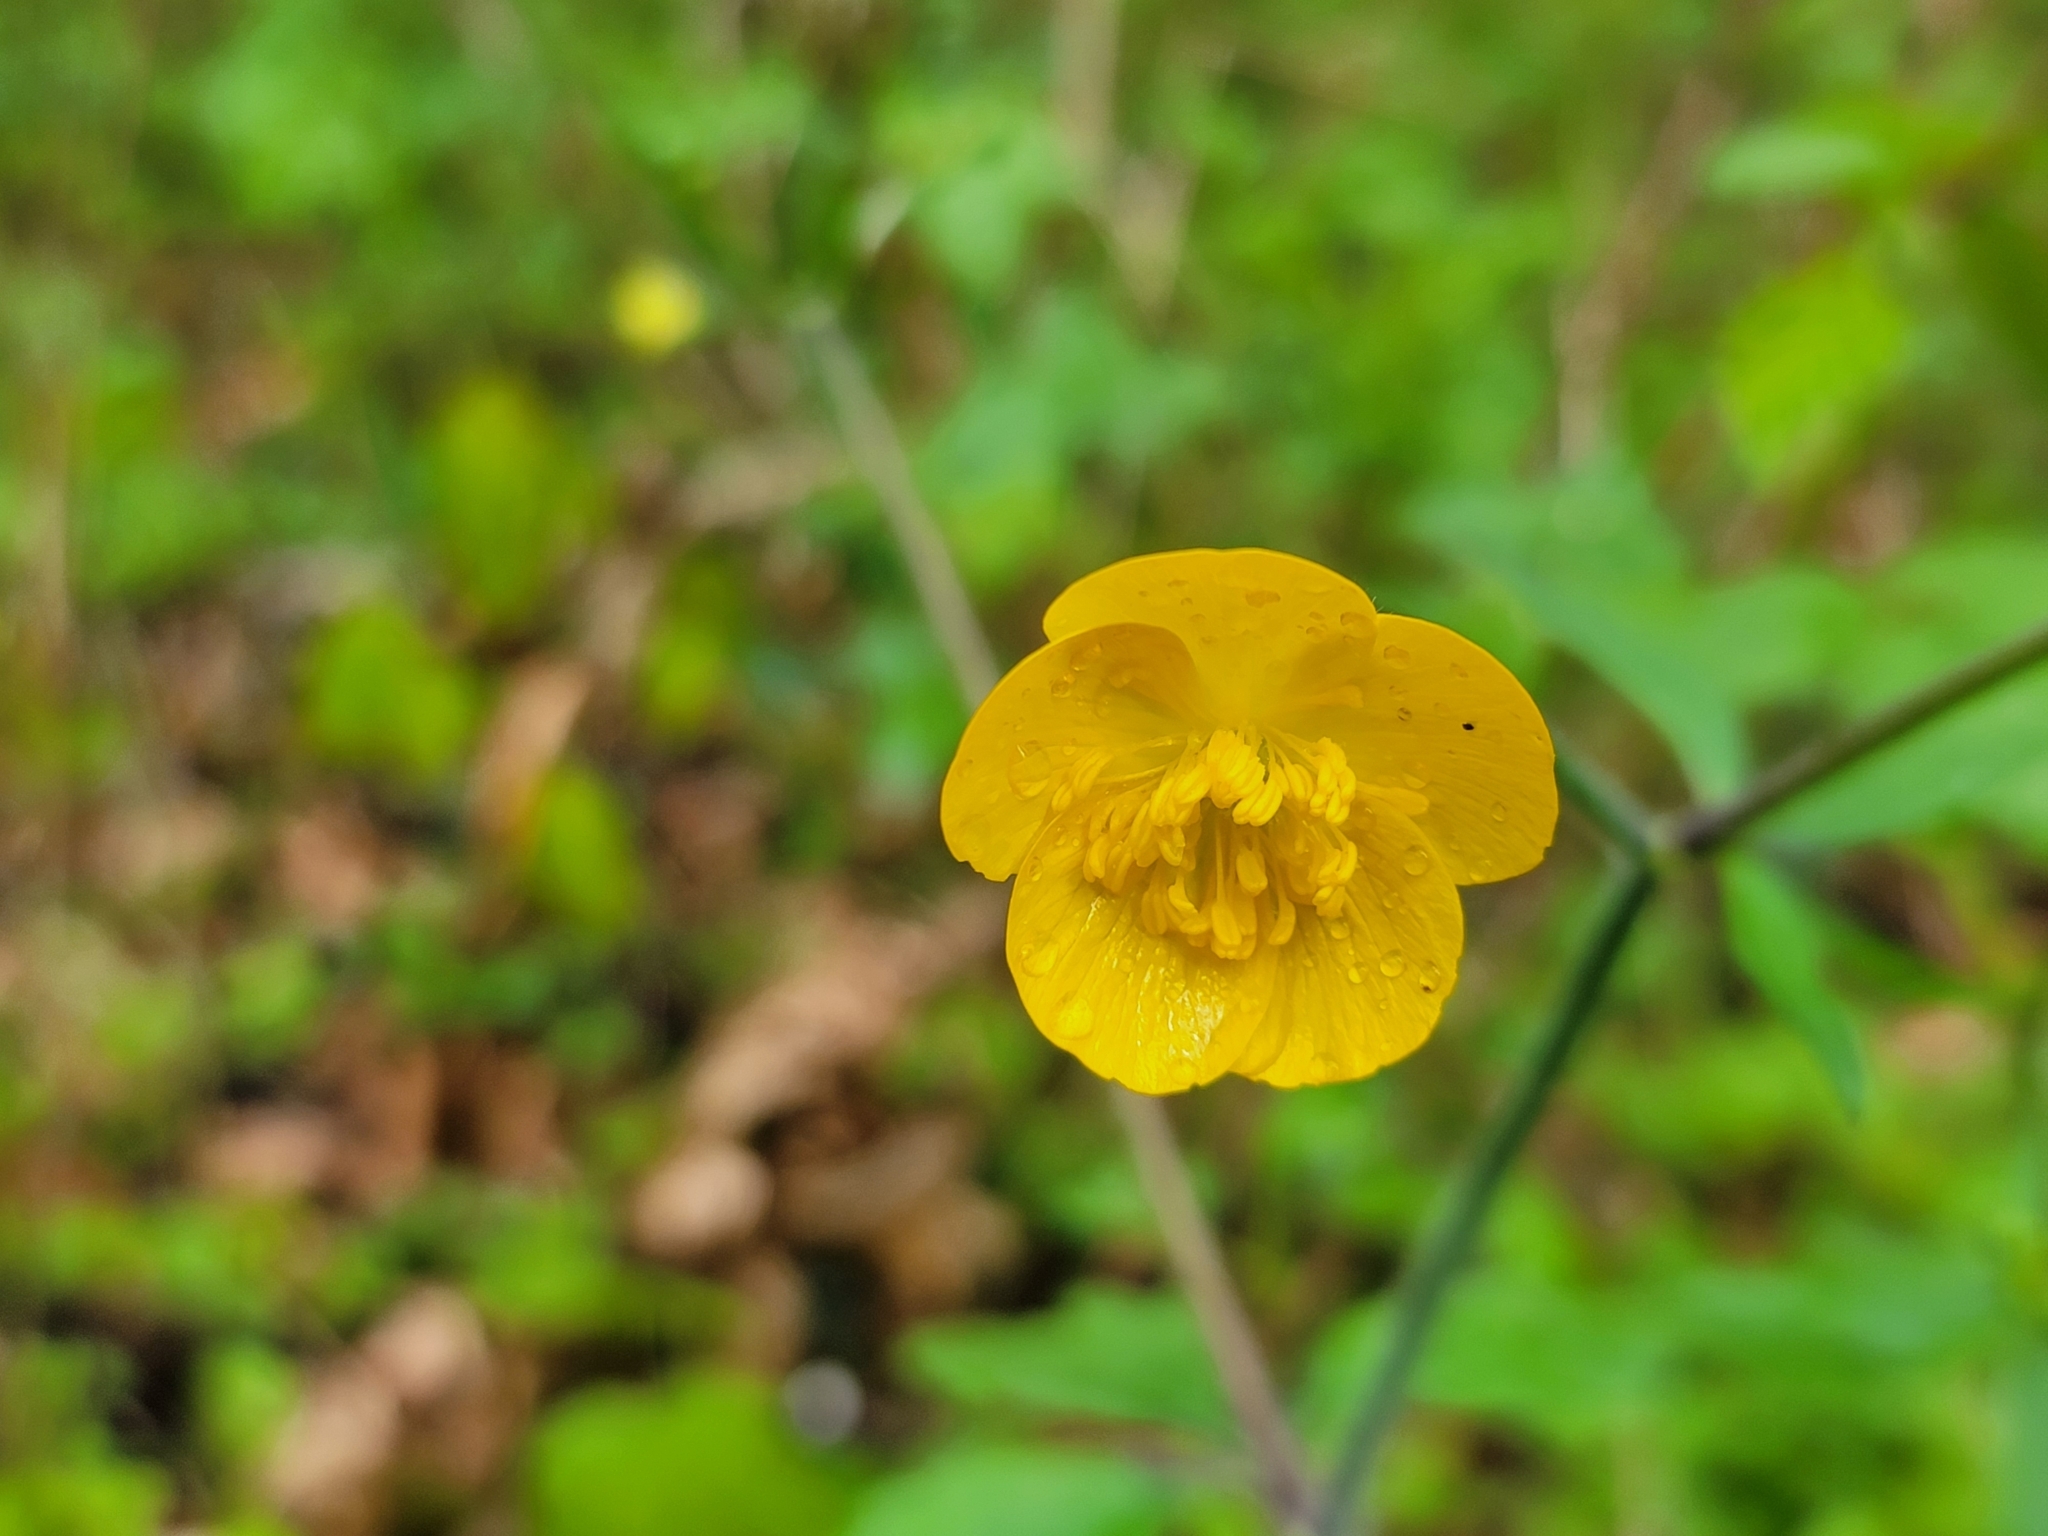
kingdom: Plantae
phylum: Tracheophyta
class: Magnoliopsida
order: Ranunculales
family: Ranunculaceae
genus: Ranunculus
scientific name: Ranunculus lanuginosus
